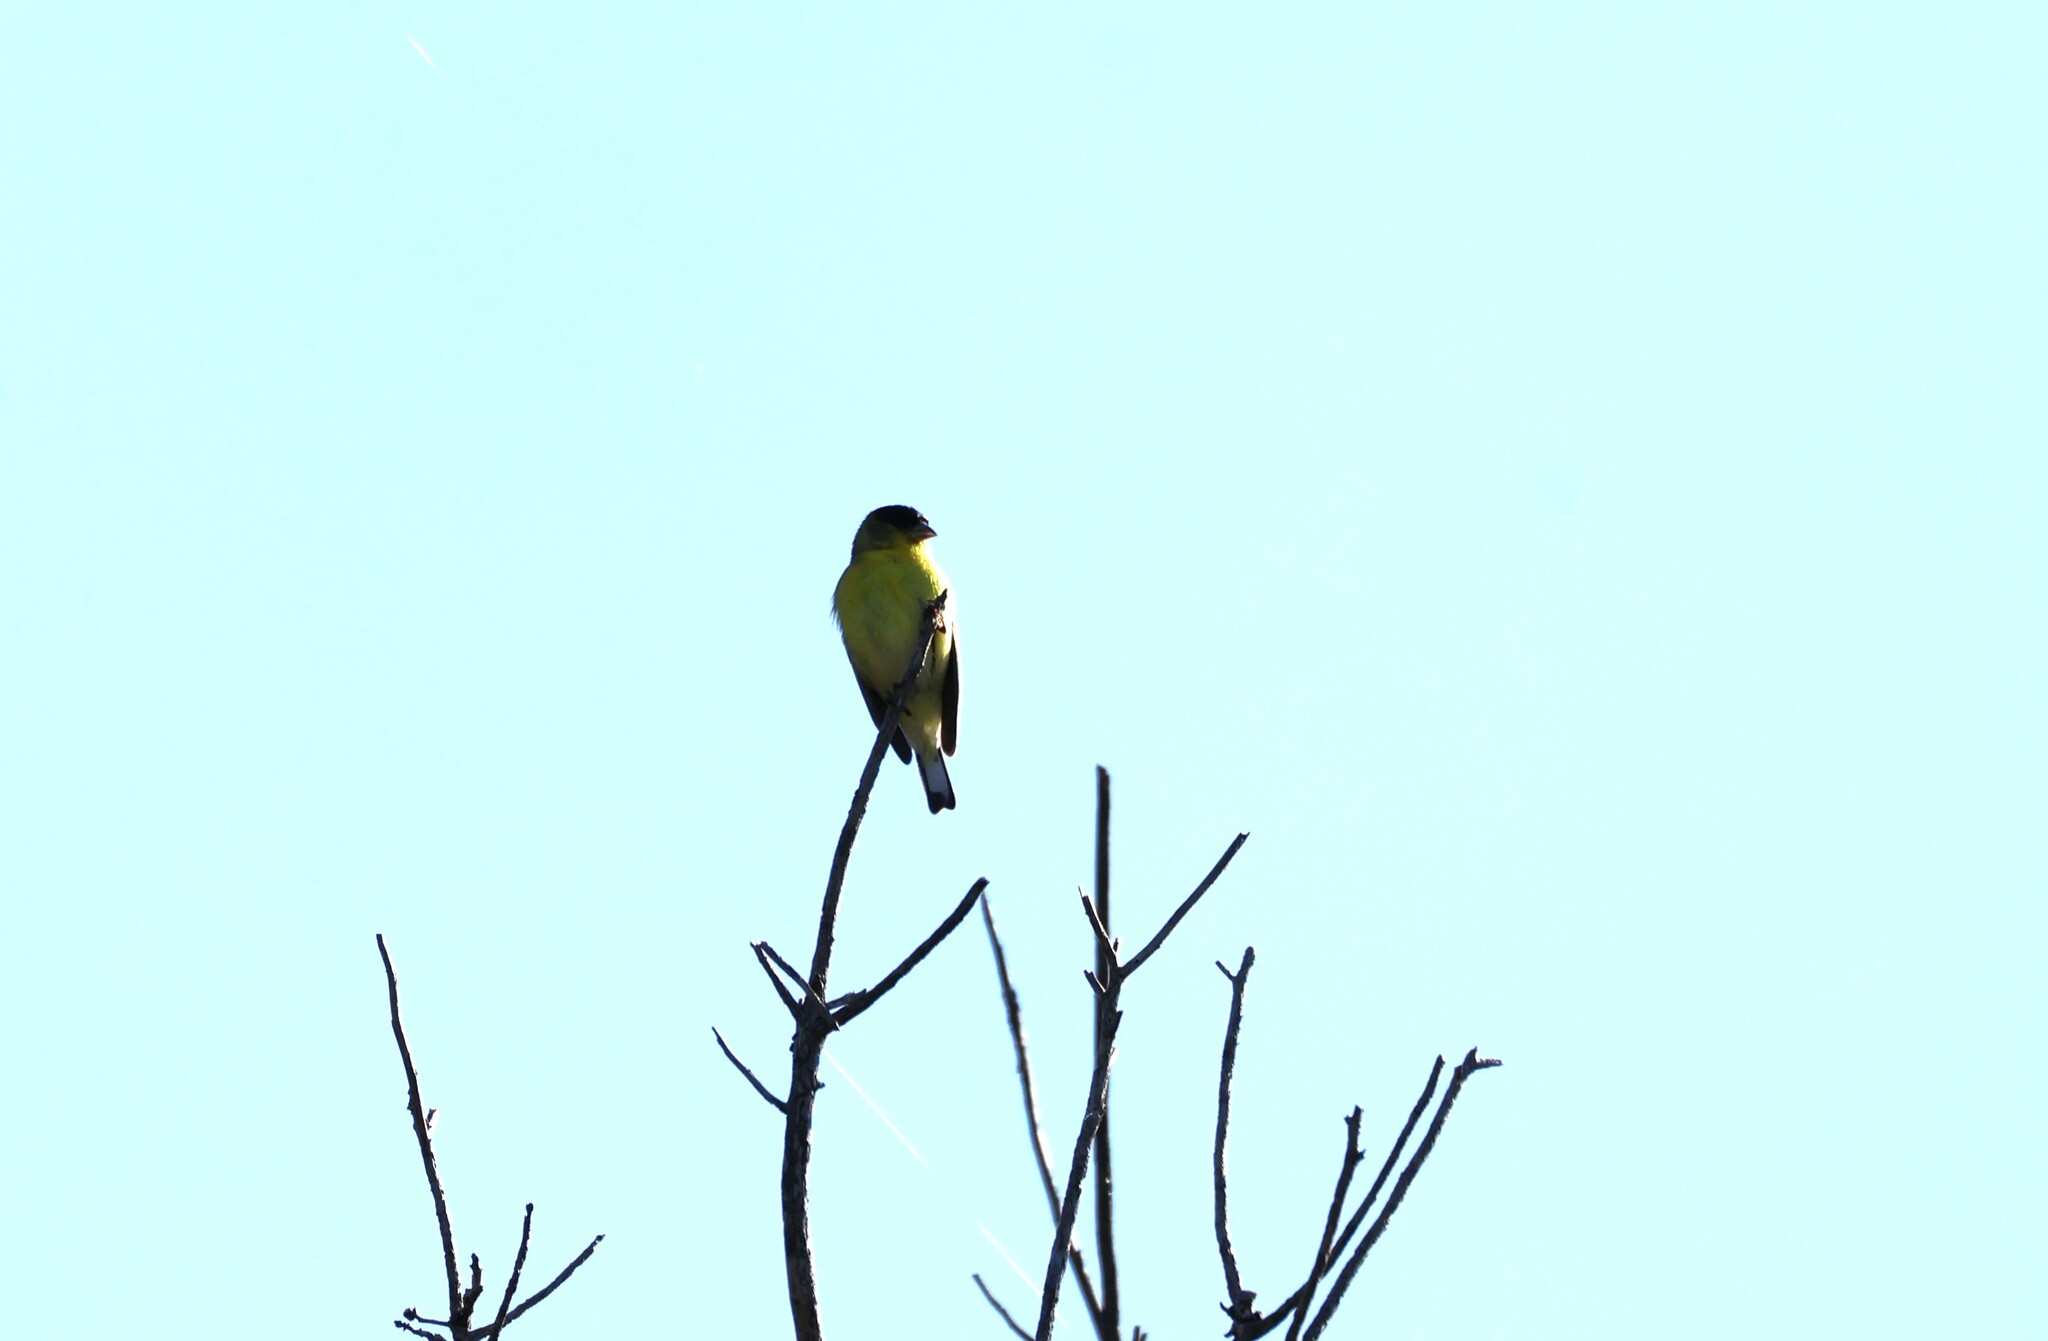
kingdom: Animalia
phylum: Chordata
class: Aves
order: Passeriformes
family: Fringillidae
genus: Spinus
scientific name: Spinus psaltria
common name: Lesser goldfinch
